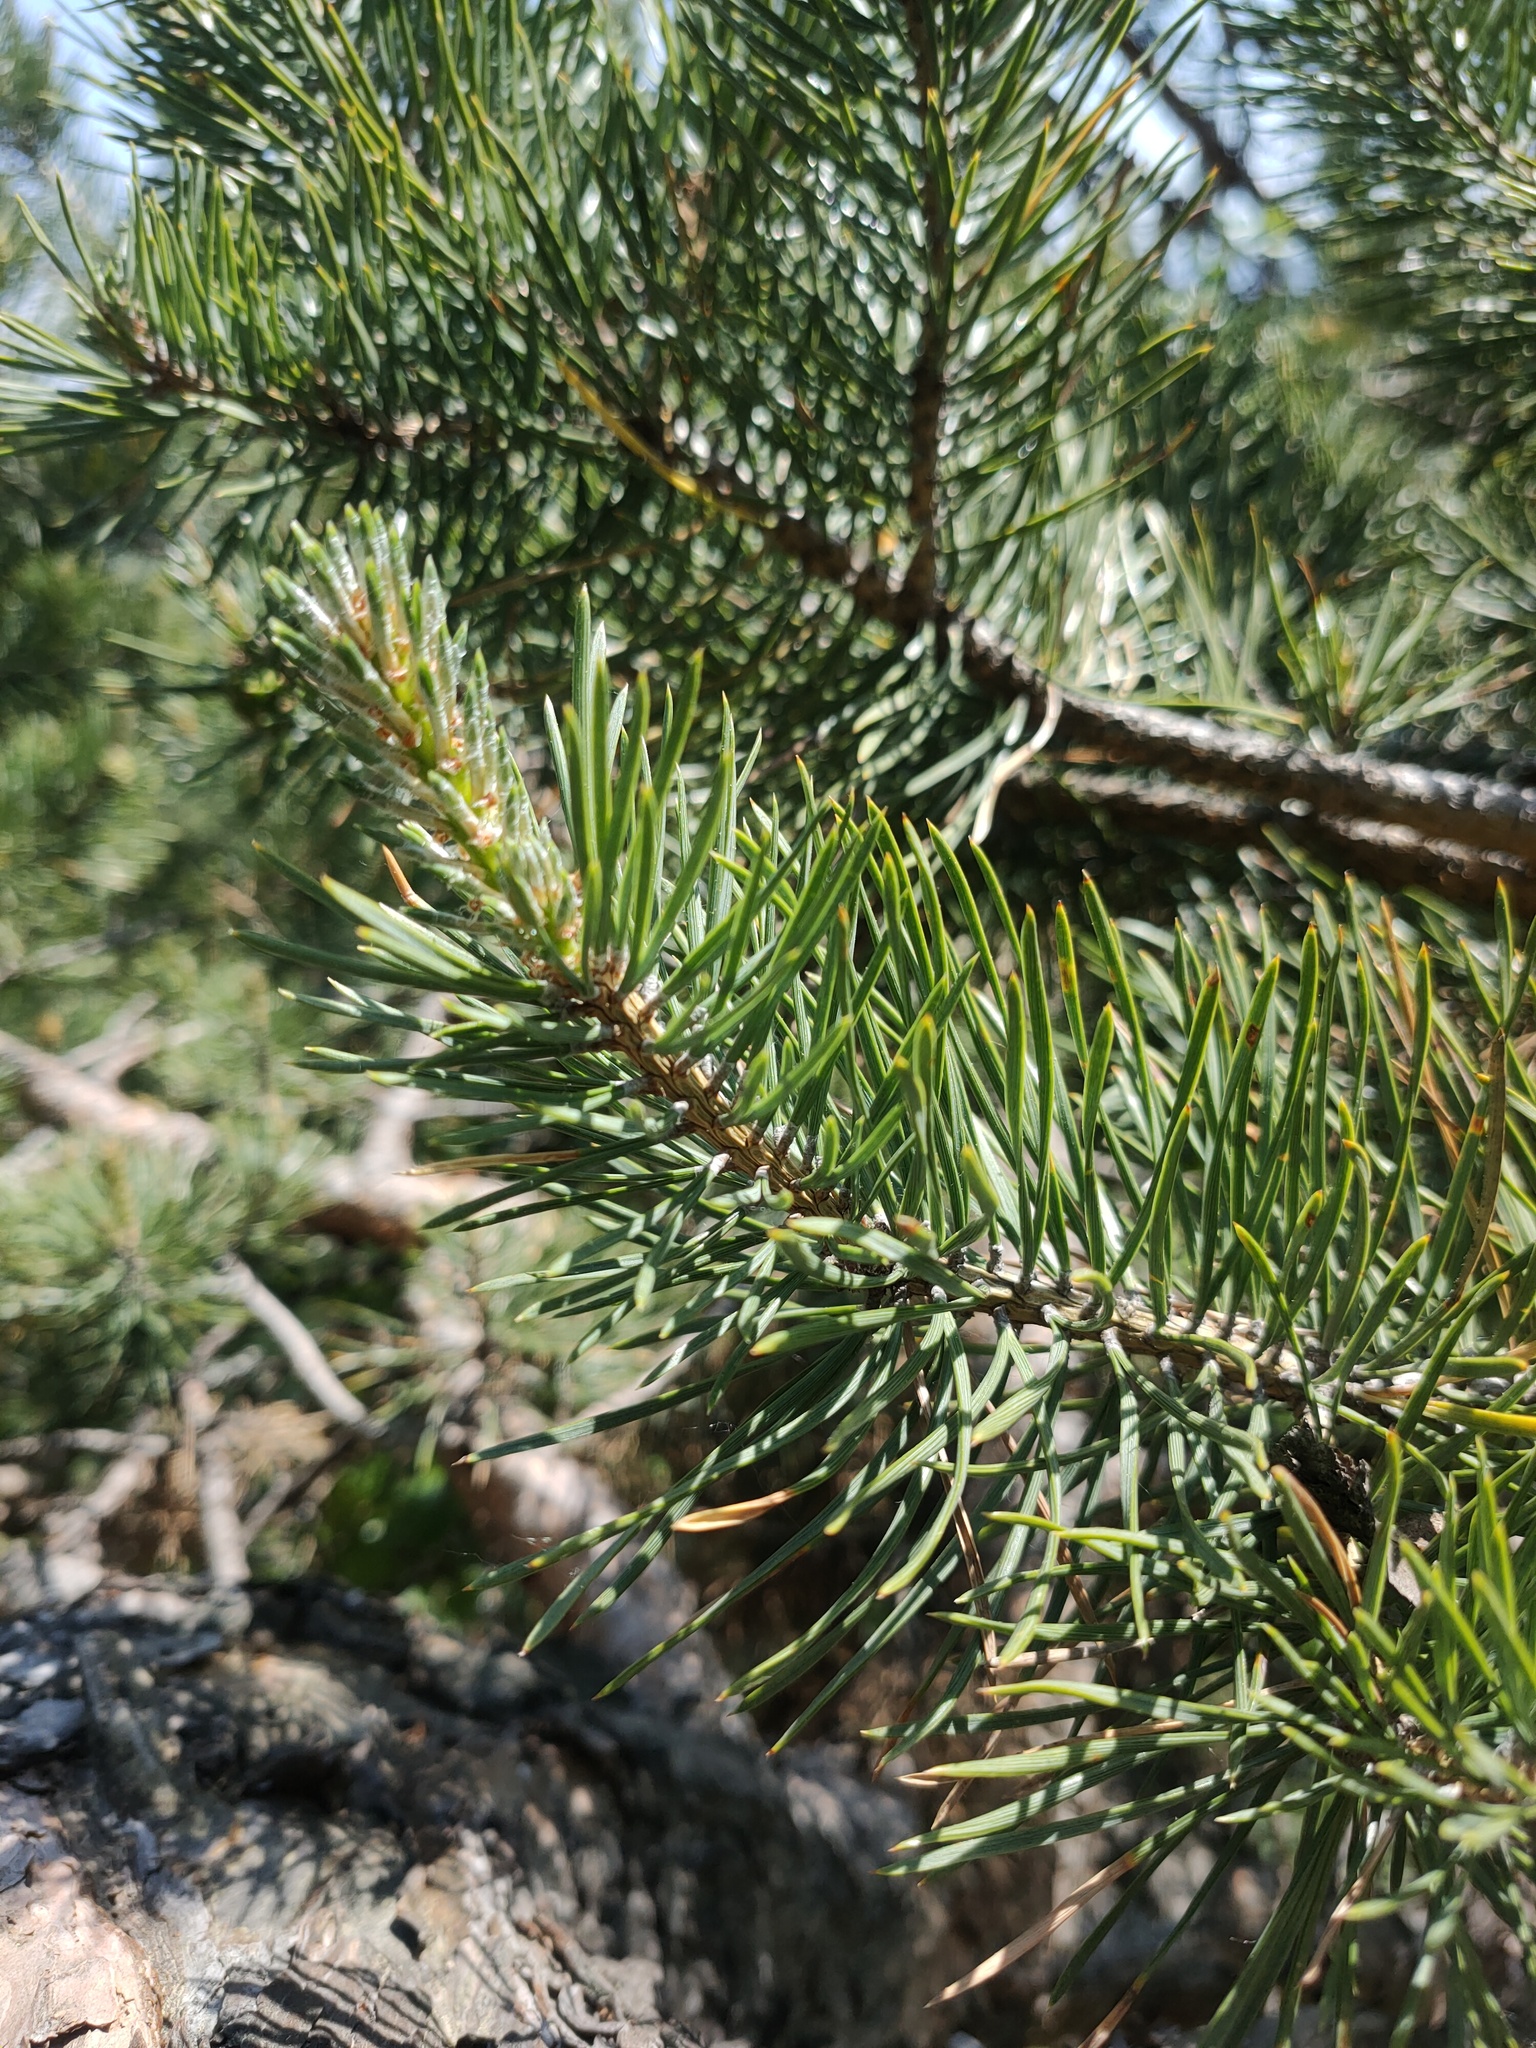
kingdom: Plantae
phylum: Tracheophyta
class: Pinopsida
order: Pinales
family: Pinaceae
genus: Pinus
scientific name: Pinus sylvestris
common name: Scots pine
